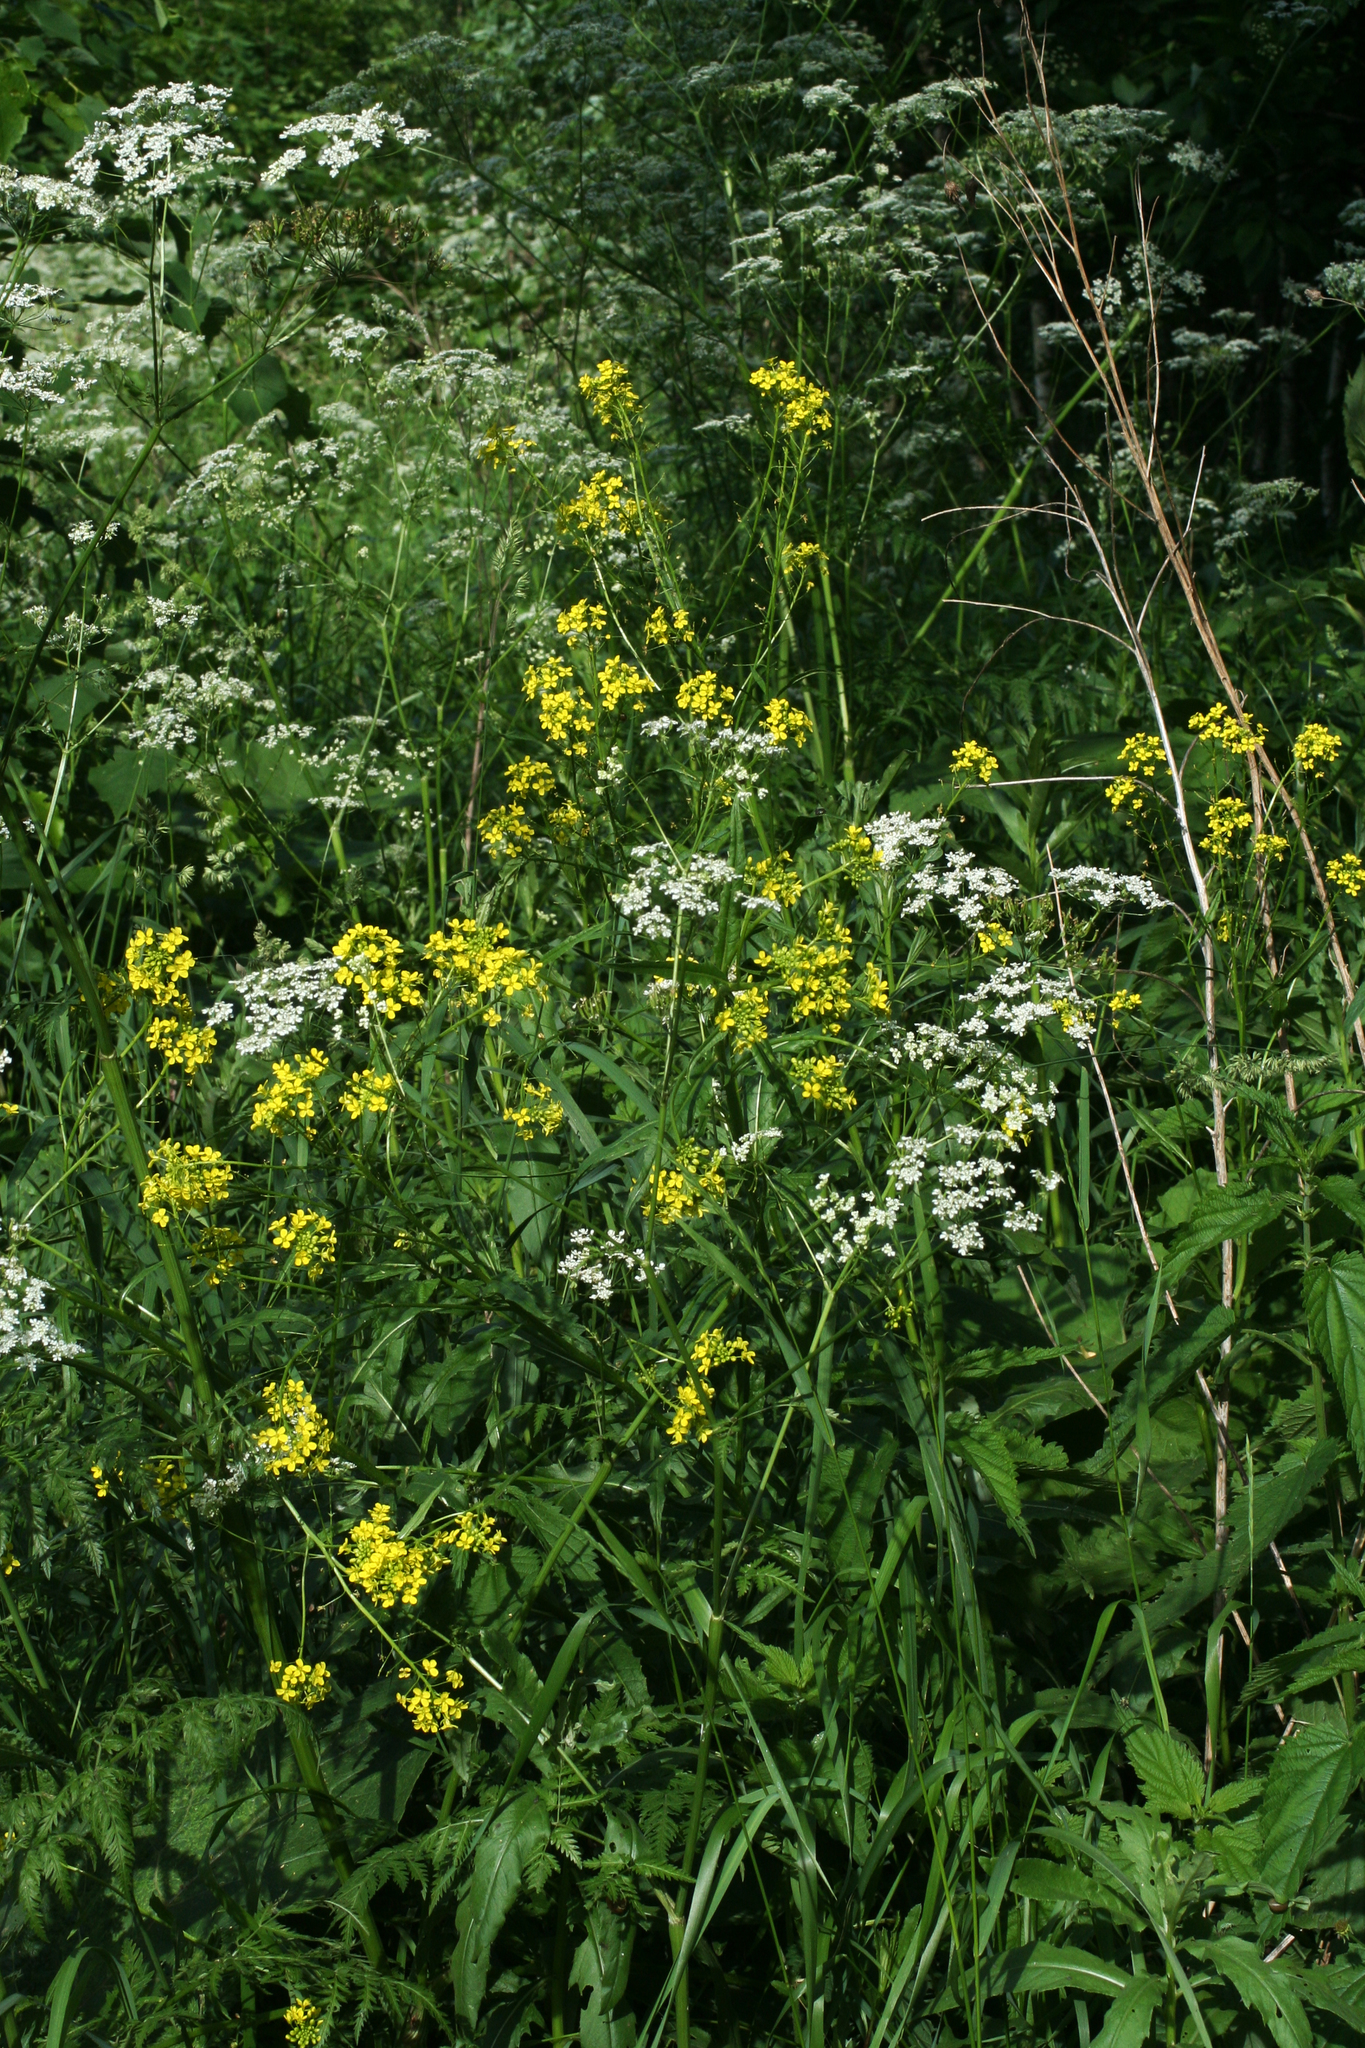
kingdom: Plantae
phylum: Tracheophyta
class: Magnoliopsida
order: Brassicales
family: Brassicaceae
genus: Bunias
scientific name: Bunias orientalis
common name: Warty-cabbage
